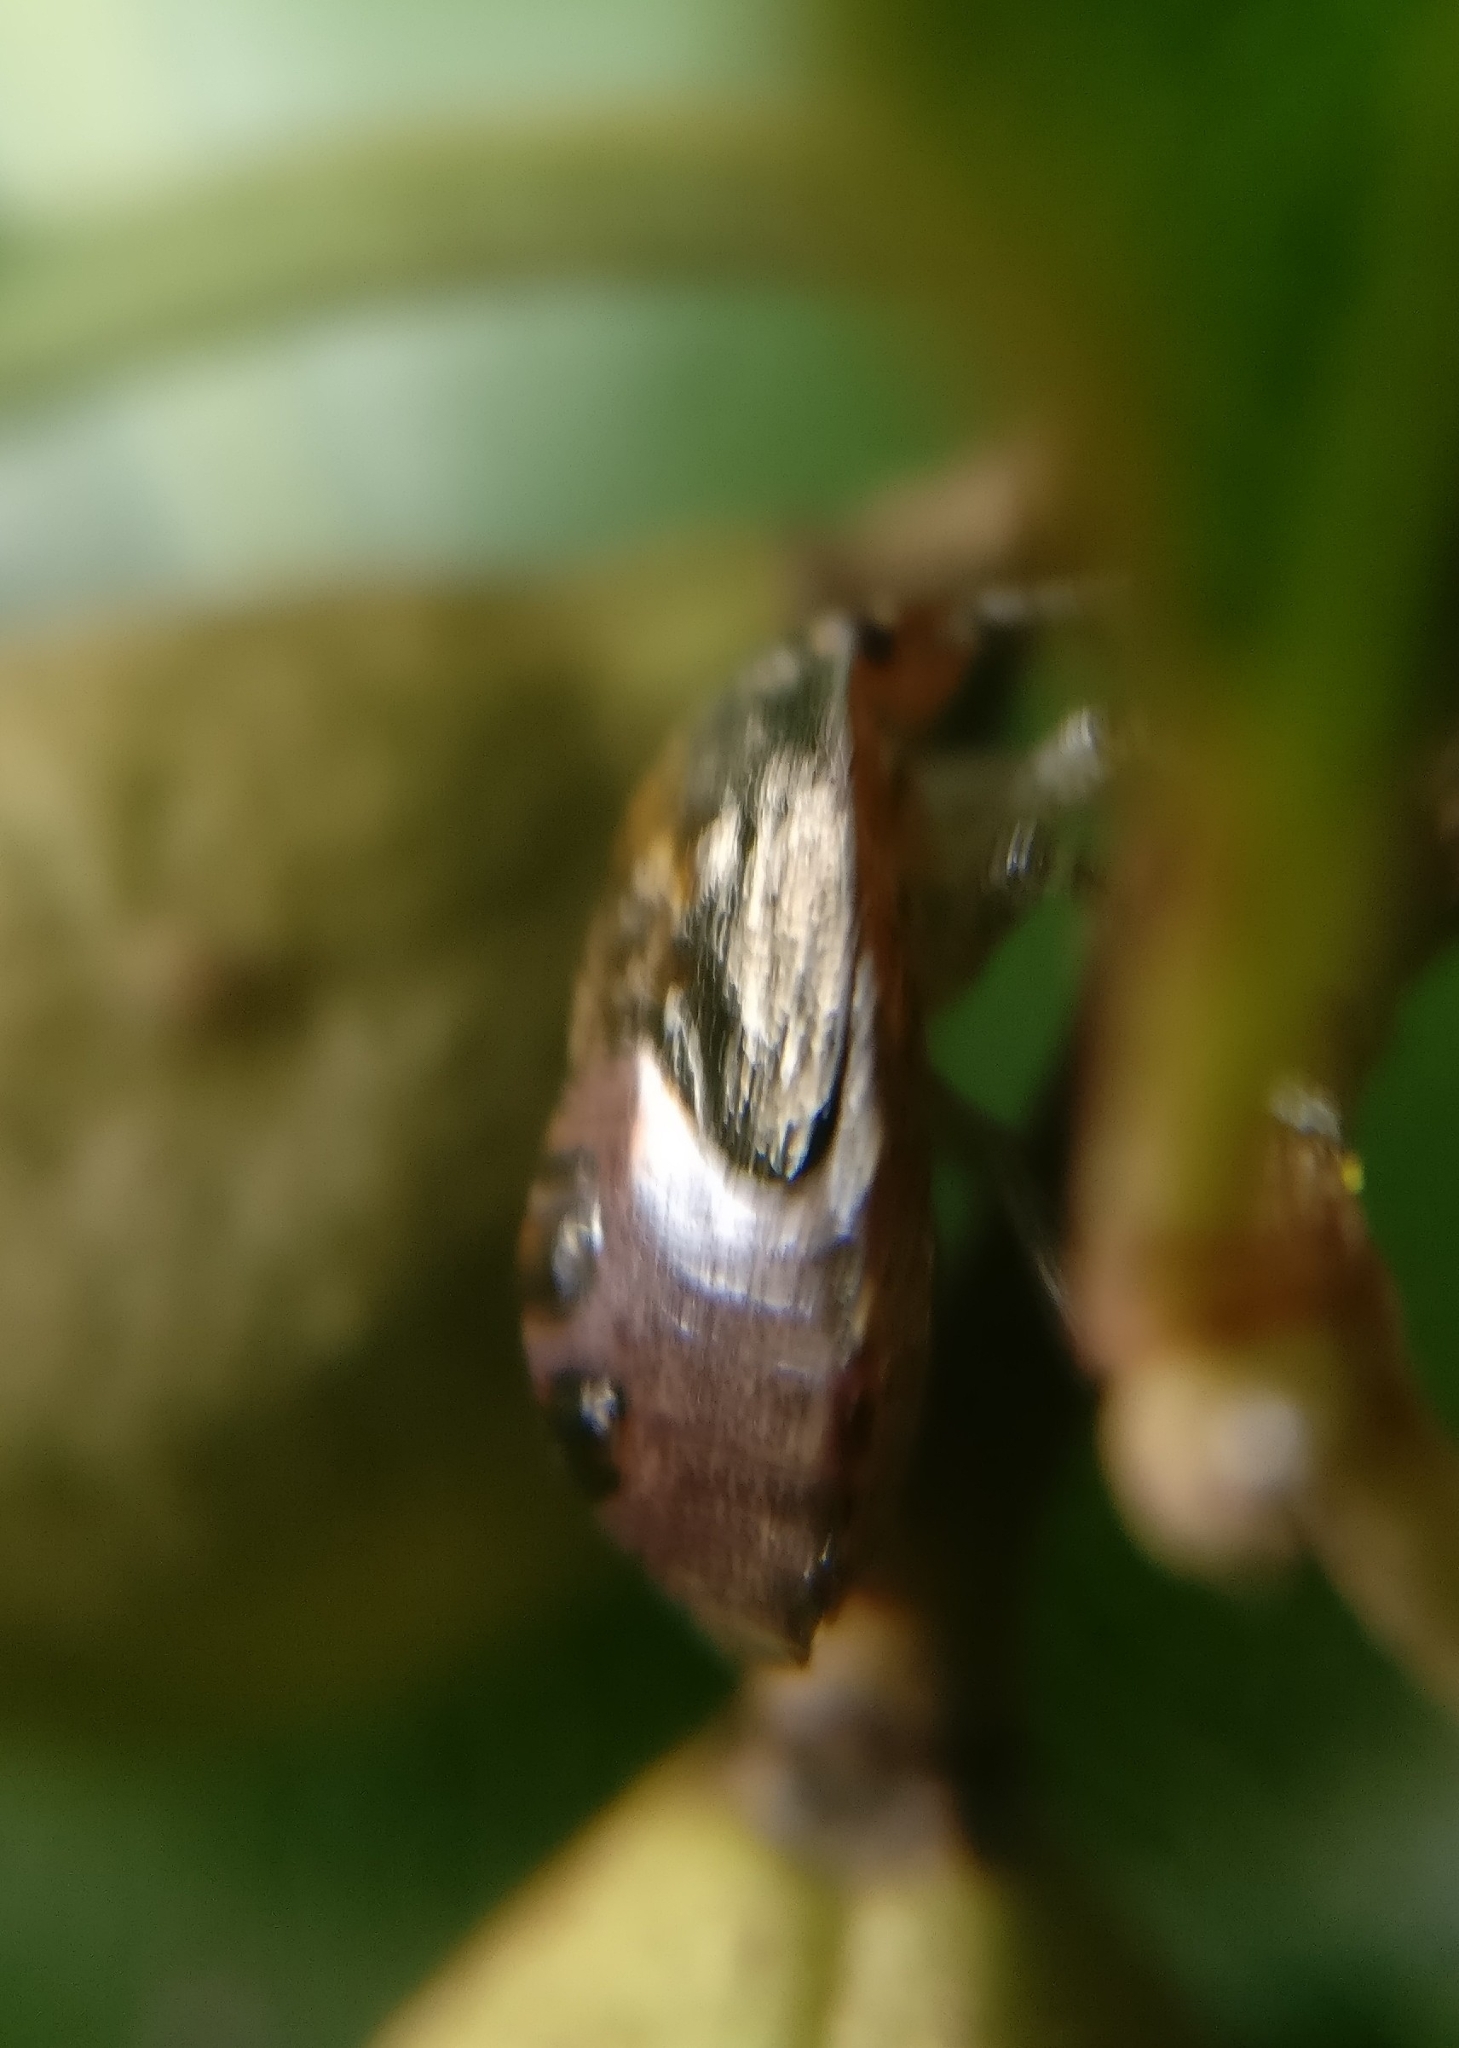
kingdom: Animalia
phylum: Arthropoda
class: Insecta
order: Hemiptera
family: Pentatomidae
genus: Monteithiella
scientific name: Monteithiella
